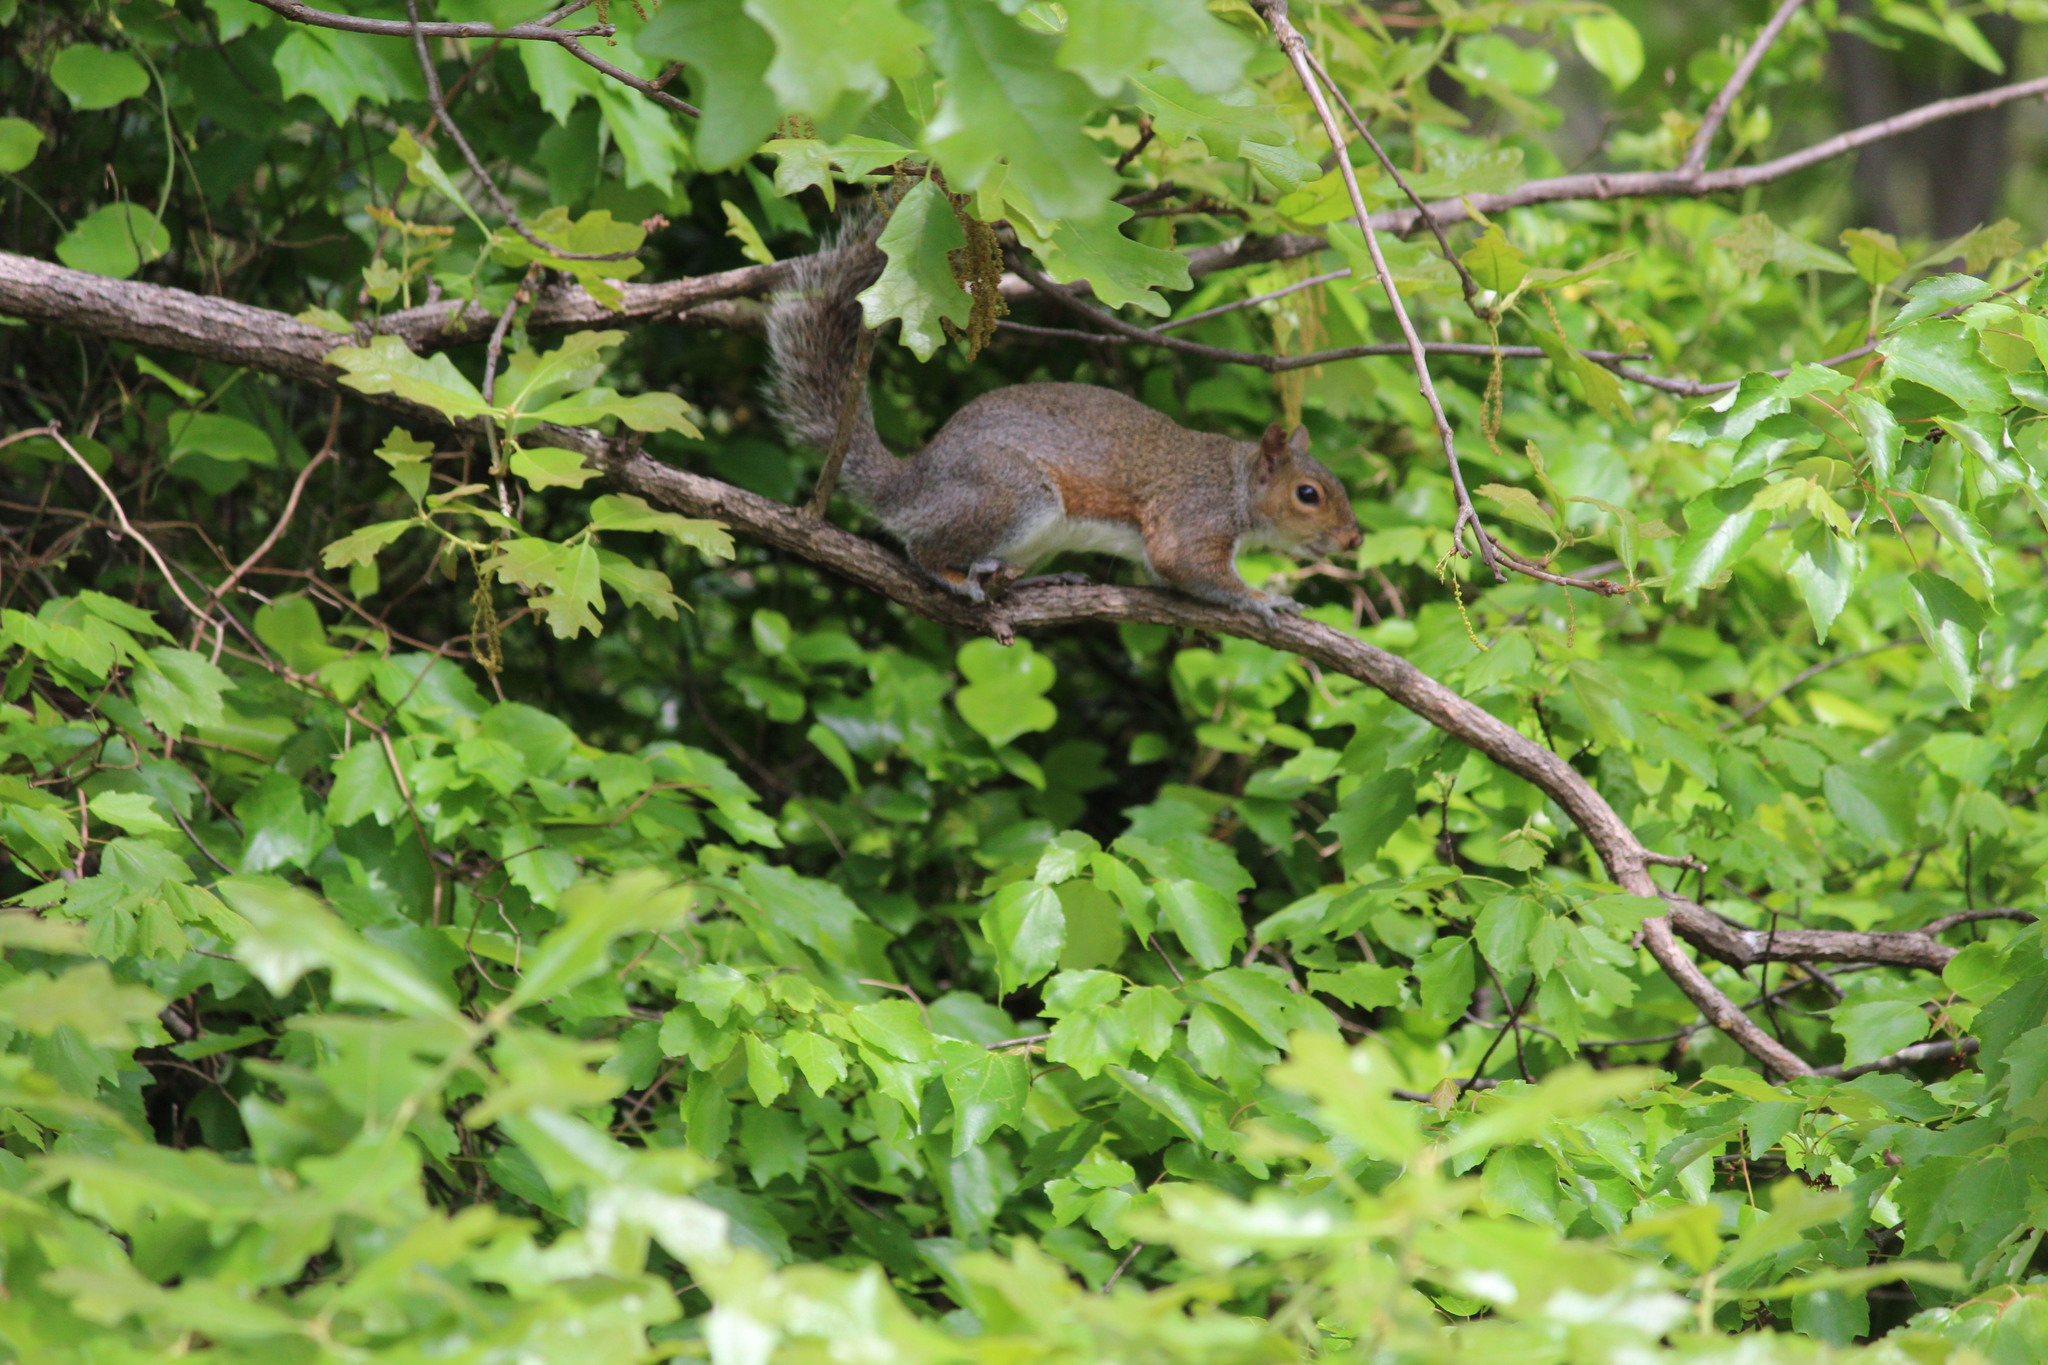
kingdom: Animalia
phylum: Chordata
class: Mammalia
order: Rodentia
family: Sciuridae
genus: Sciurus
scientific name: Sciurus carolinensis
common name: Eastern gray squirrel
